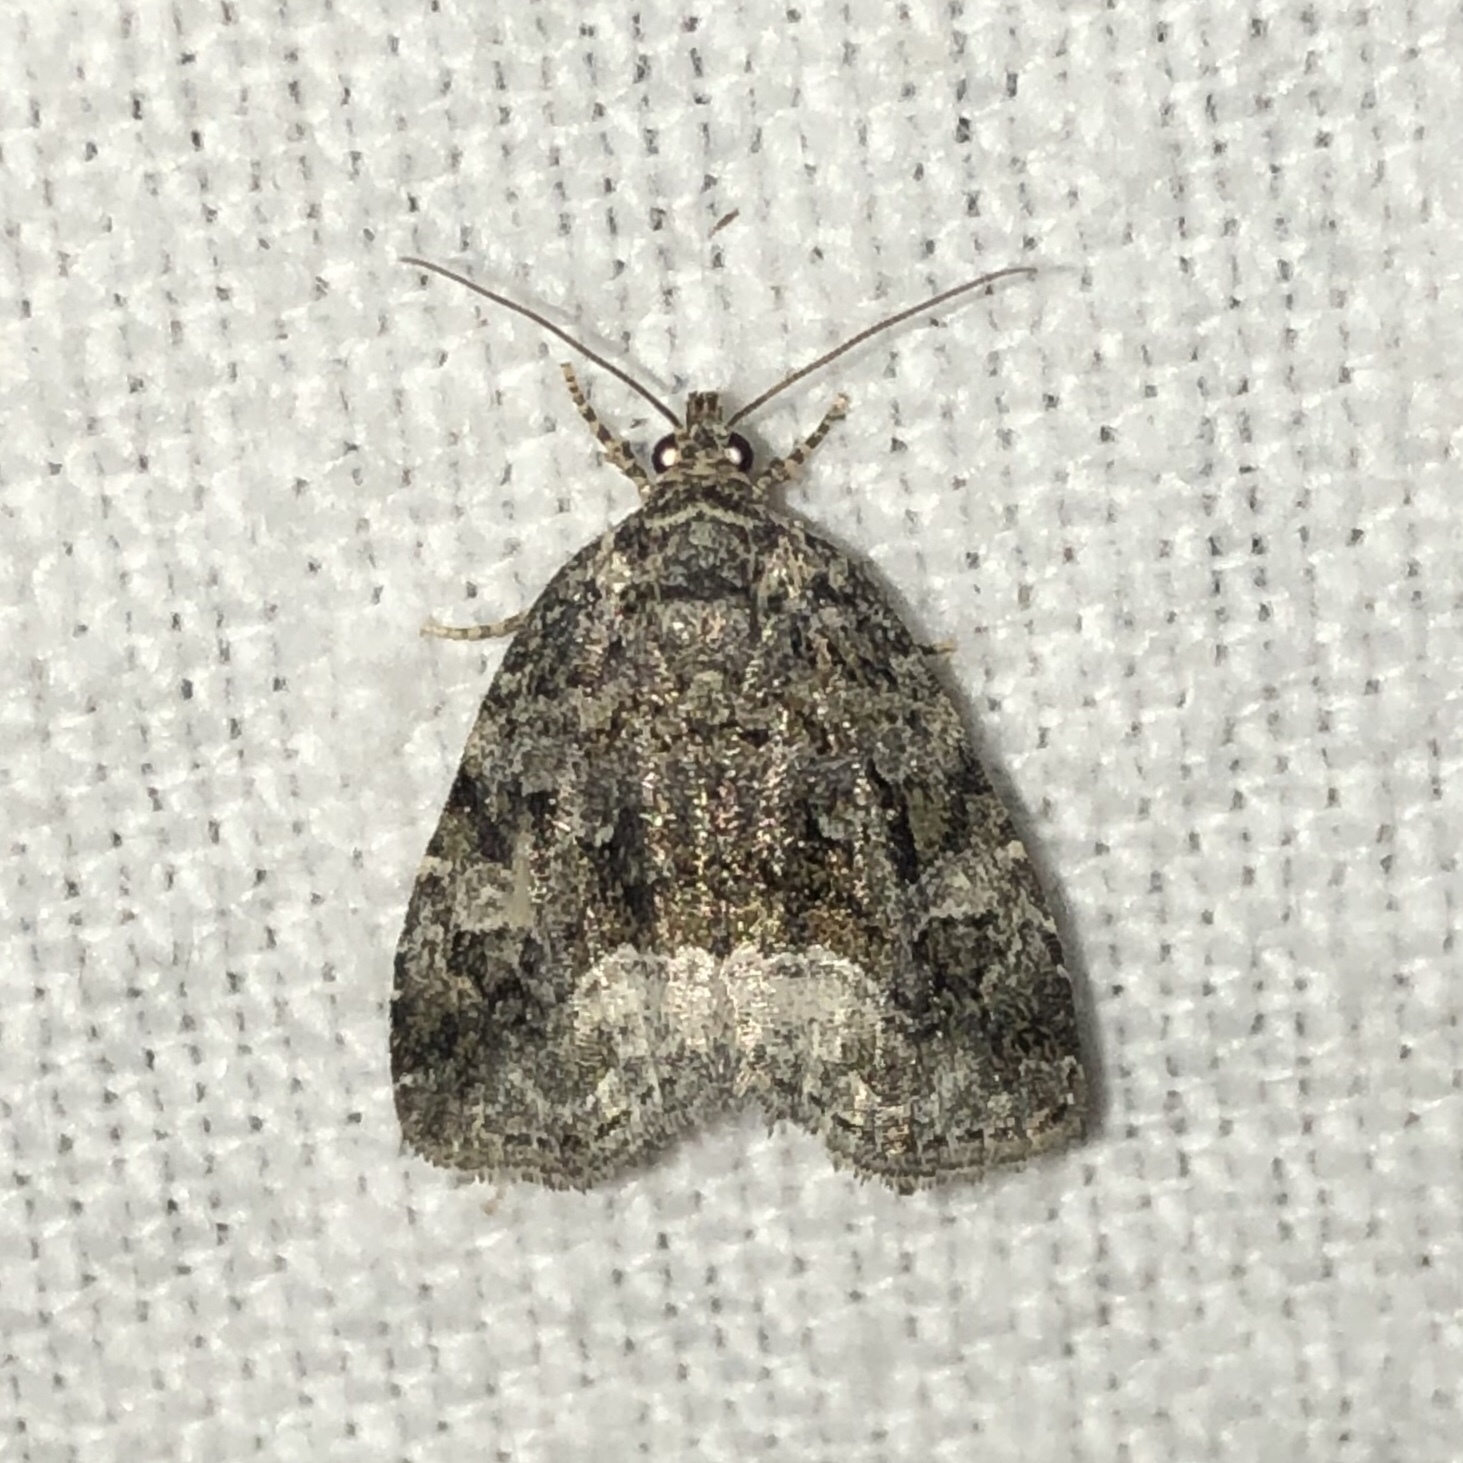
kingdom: Animalia
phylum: Arthropoda
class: Insecta
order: Lepidoptera
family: Noctuidae
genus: Protodeltote
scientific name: Protodeltote muscosula
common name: Large mossy glyph
